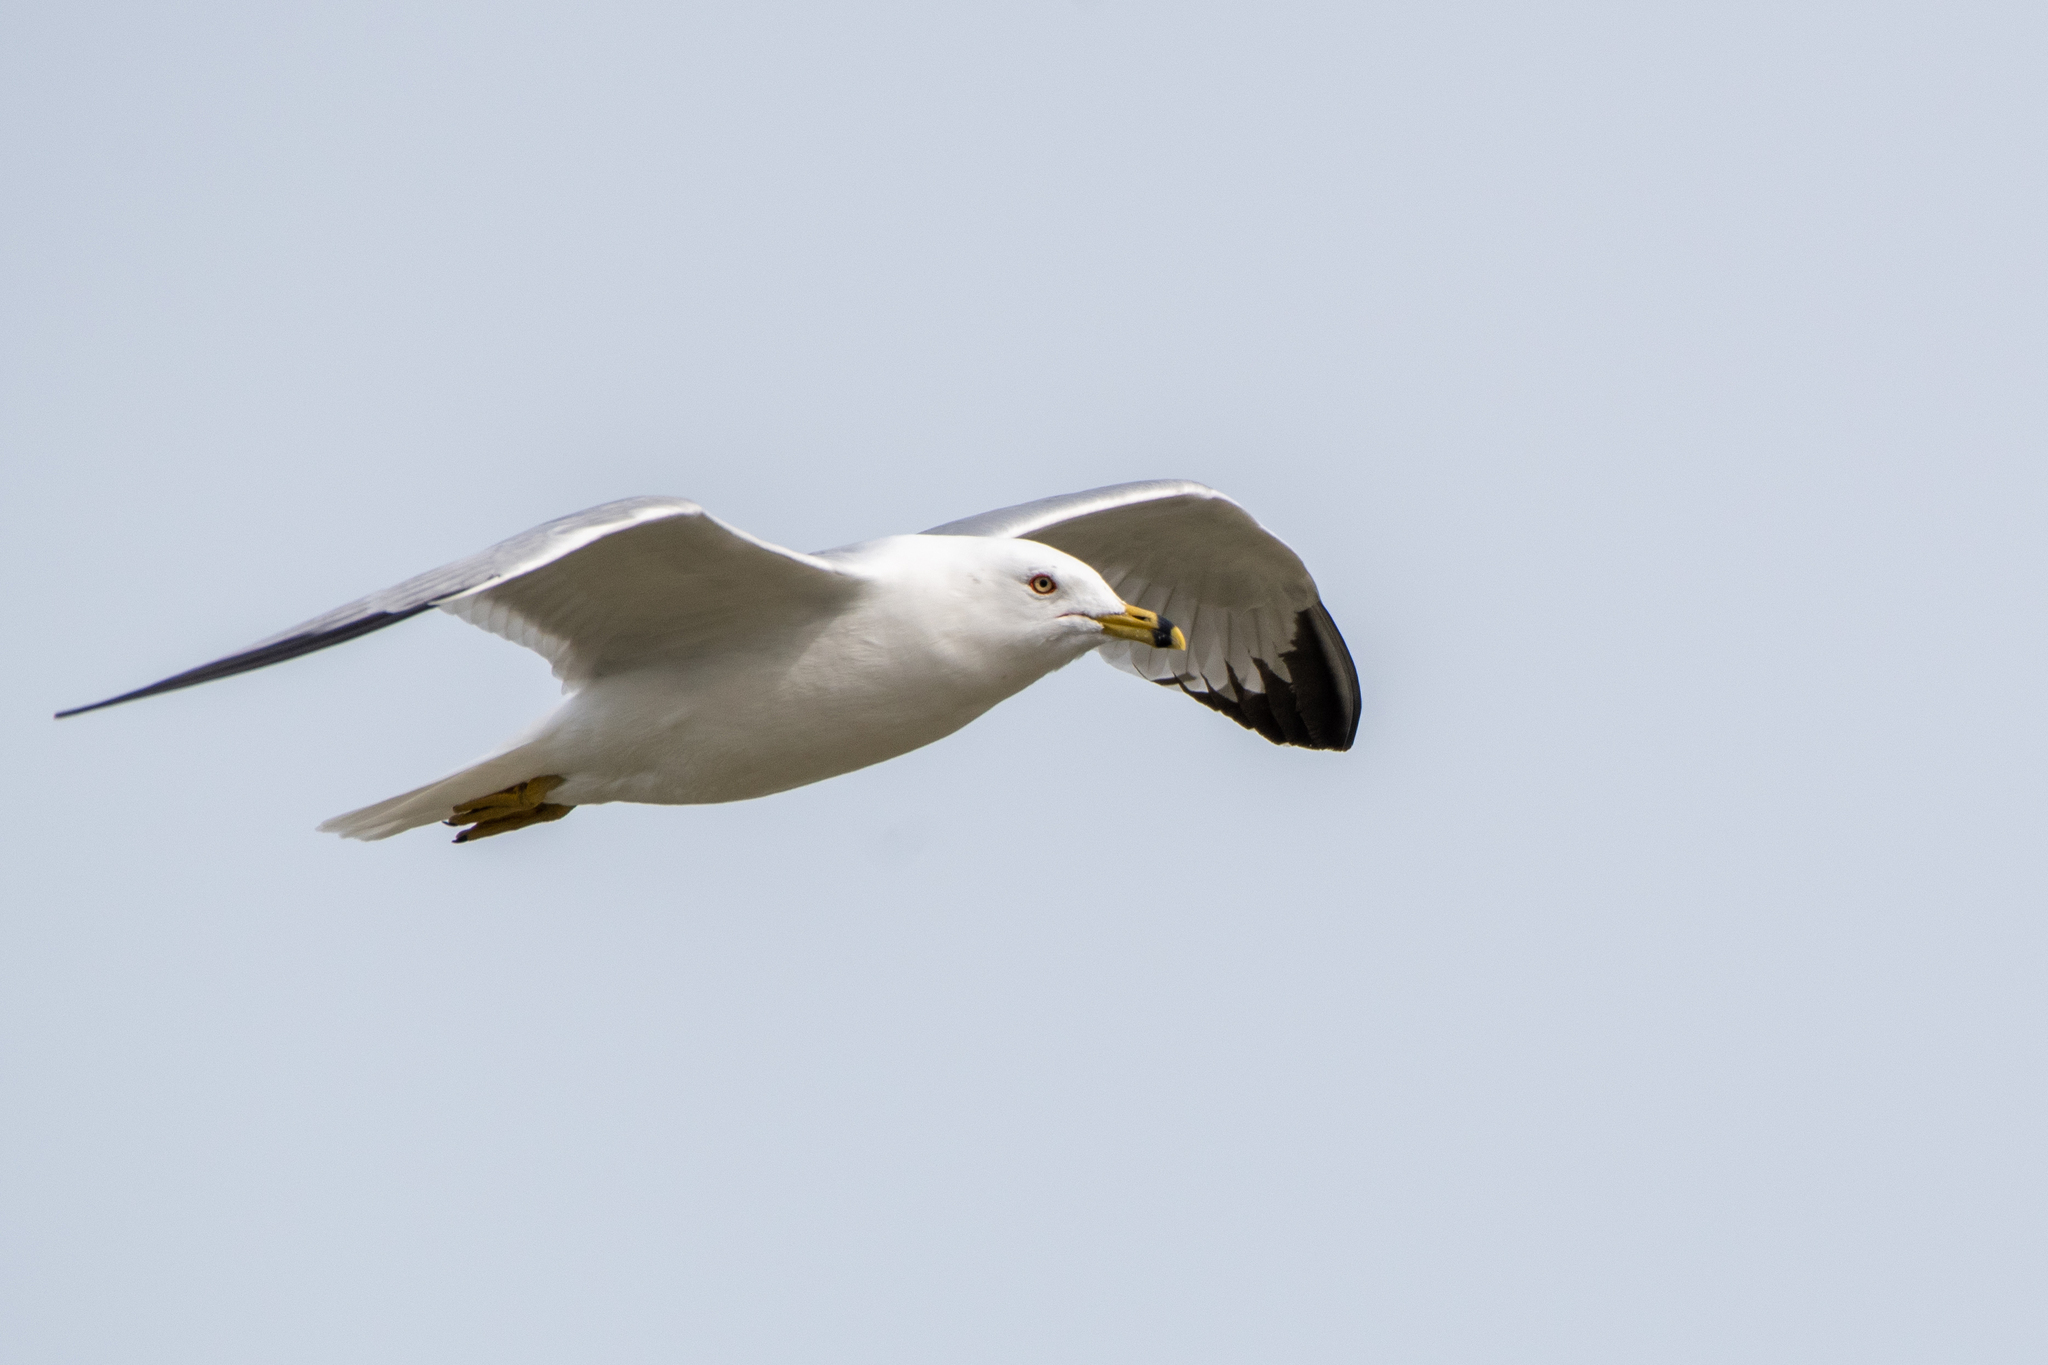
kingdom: Animalia
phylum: Chordata
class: Aves
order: Charadriiformes
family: Laridae
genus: Larus
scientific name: Larus delawarensis
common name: Ring-billed gull
